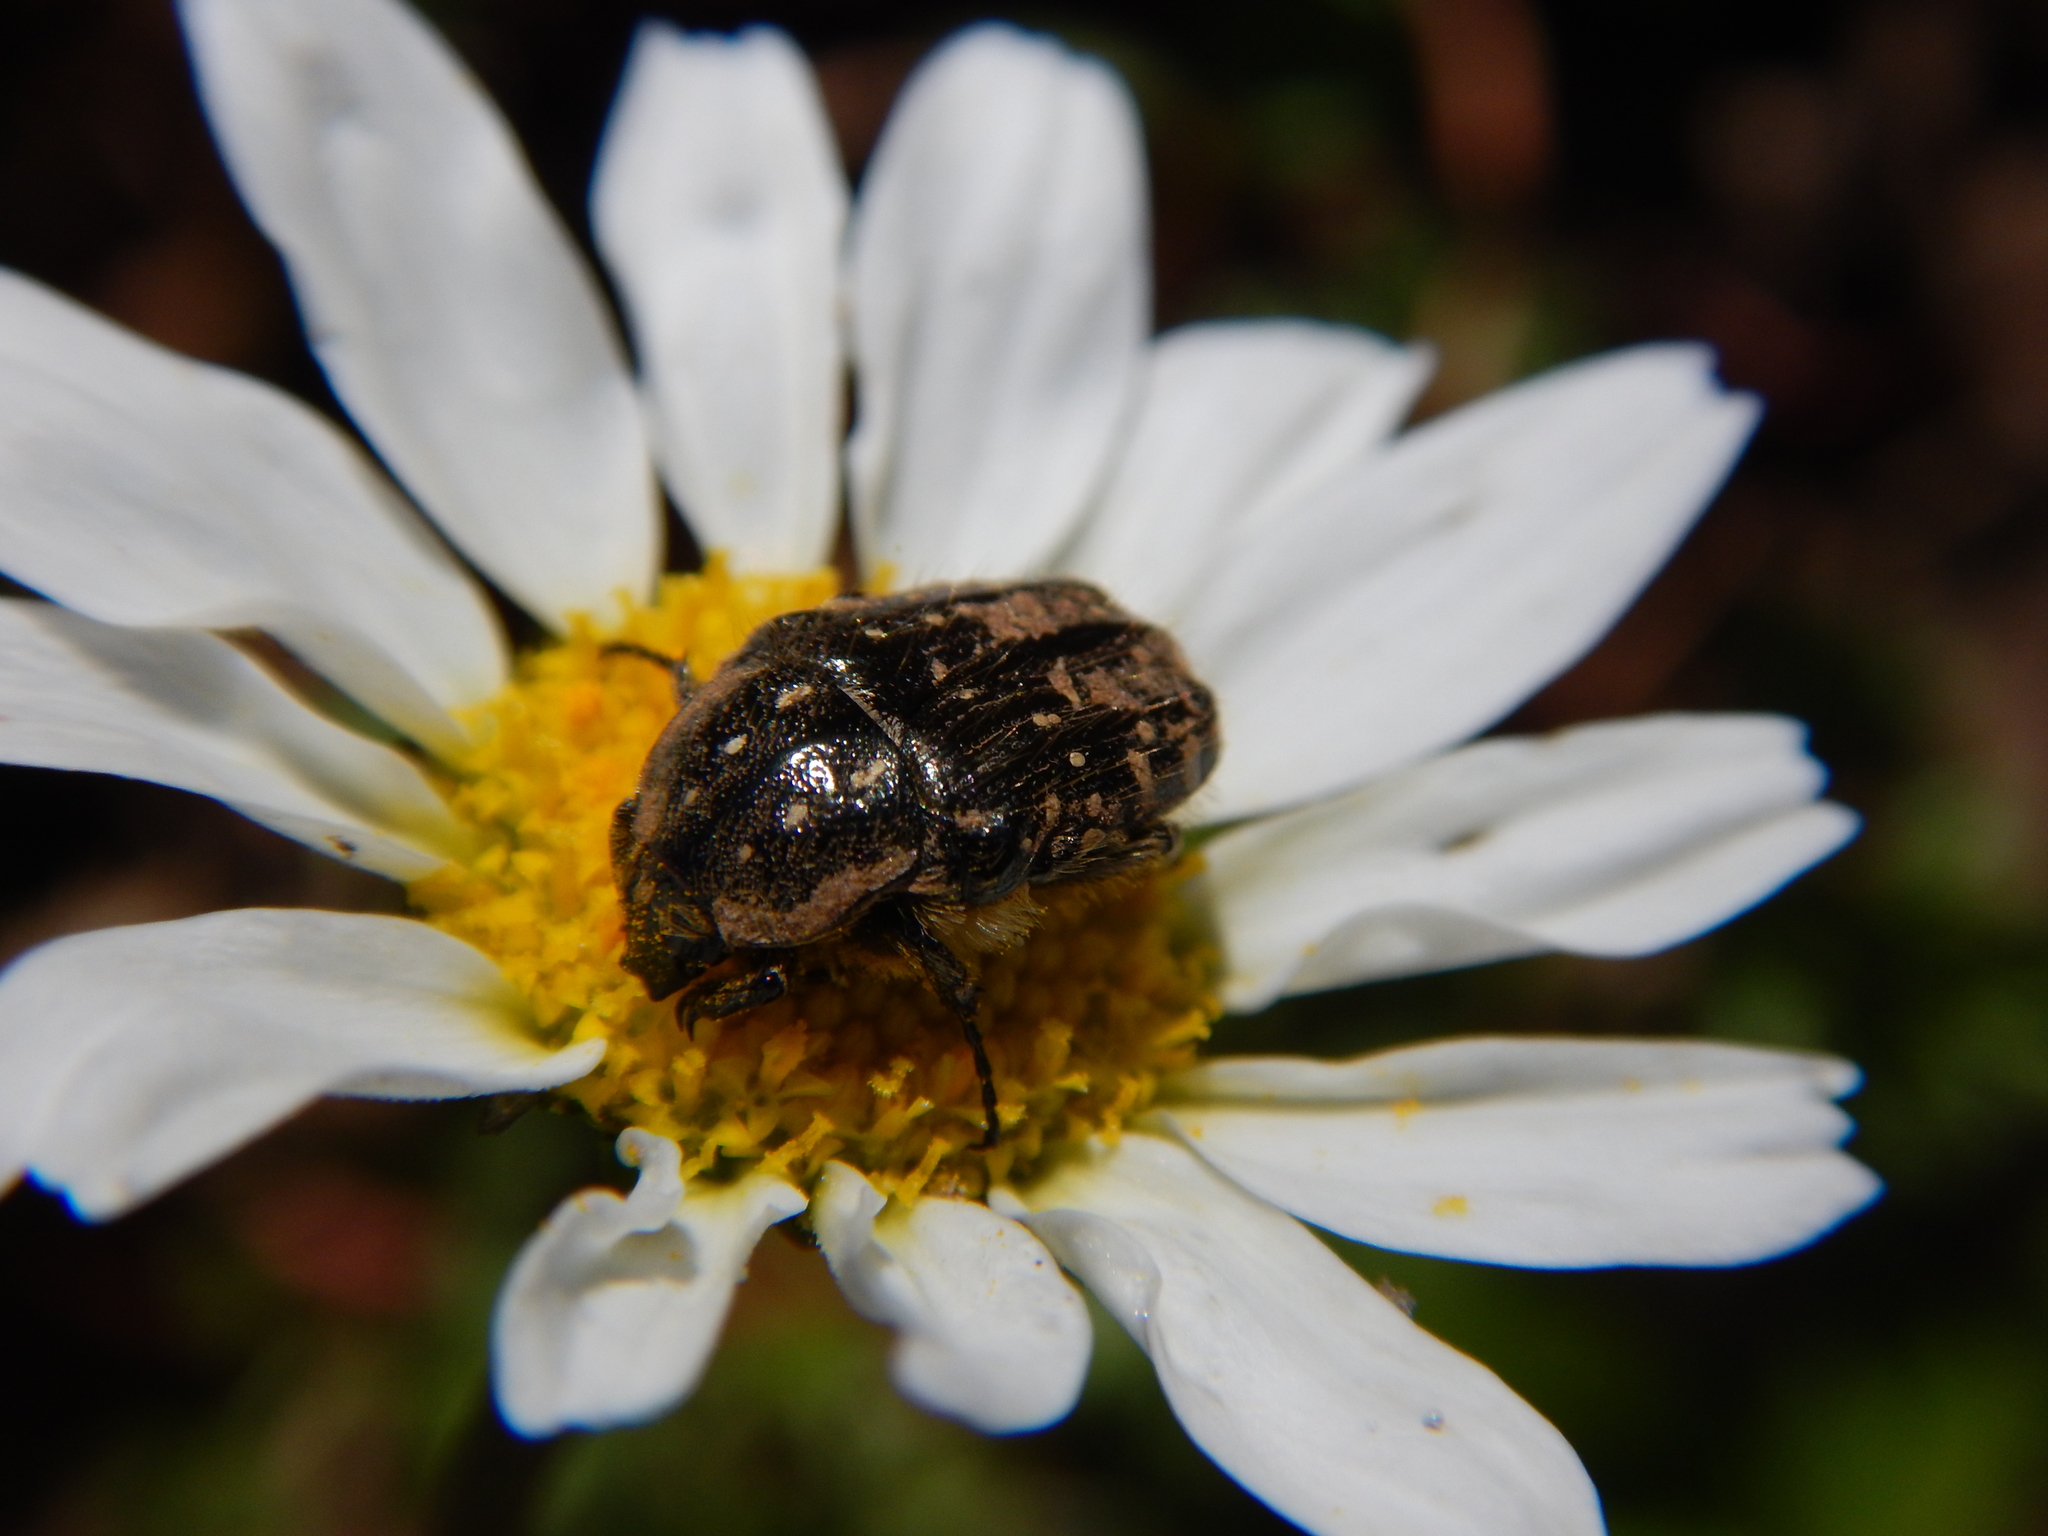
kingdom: Animalia
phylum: Arthropoda
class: Insecta
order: Coleoptera
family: Scarabaeidae
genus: Oxythyrea
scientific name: Oxythyrea funesta
